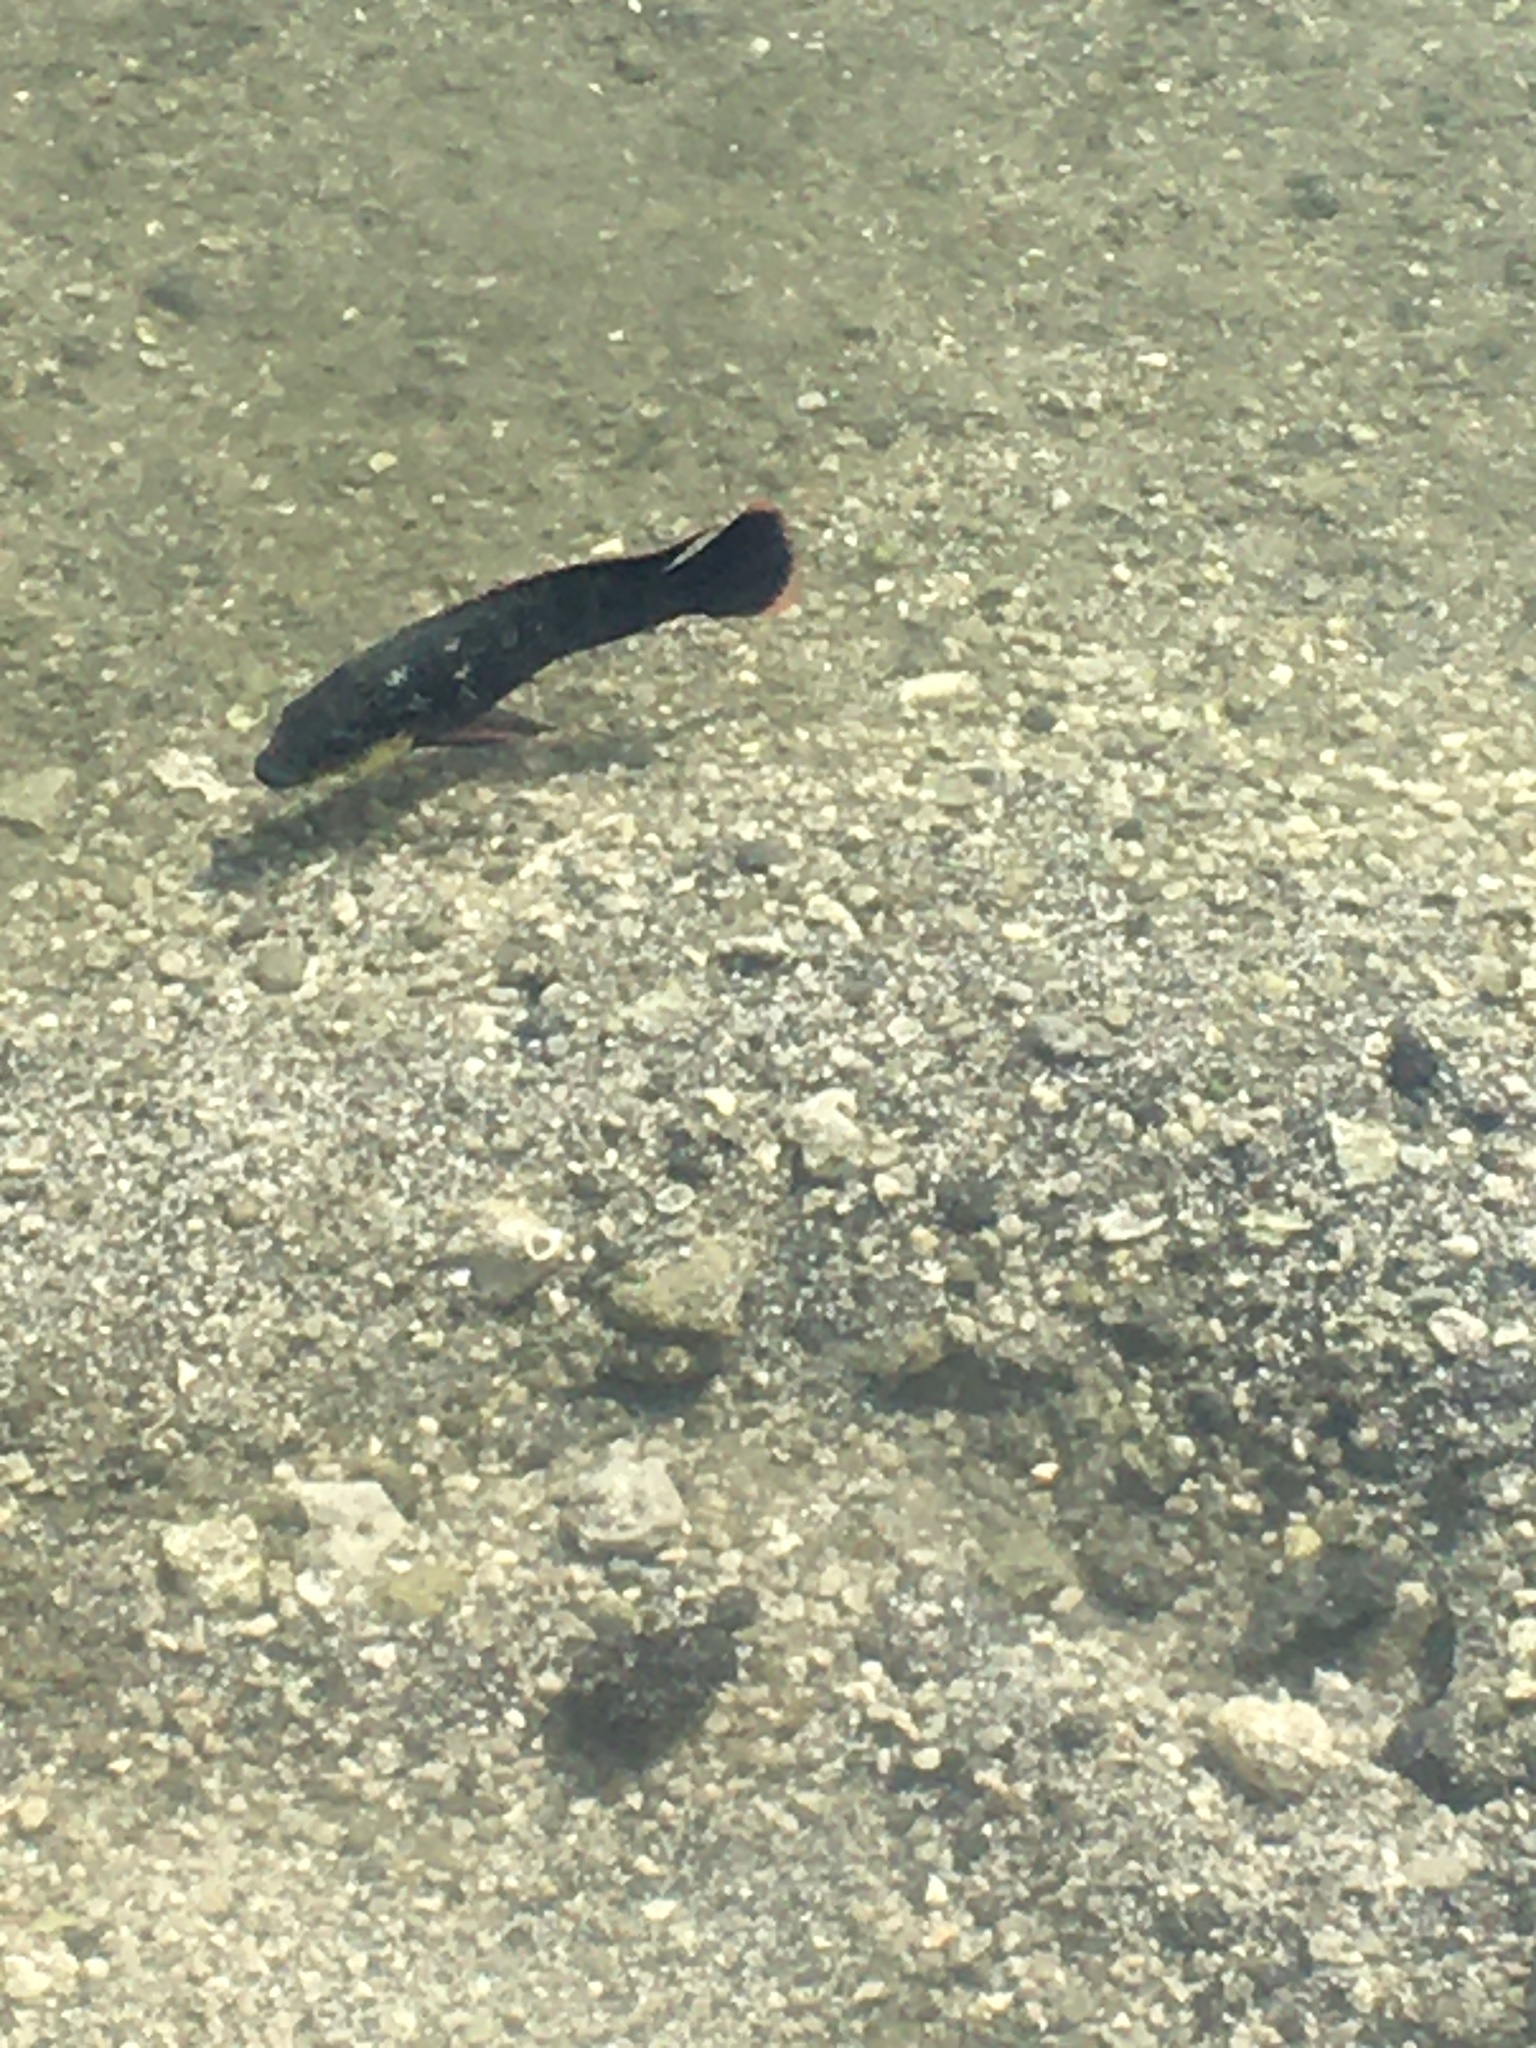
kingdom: Animalia
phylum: Chordata
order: Perciformes
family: Cichlidae
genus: Oreochromis
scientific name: Oreochromis mossambicus
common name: Mozambique tilapia
